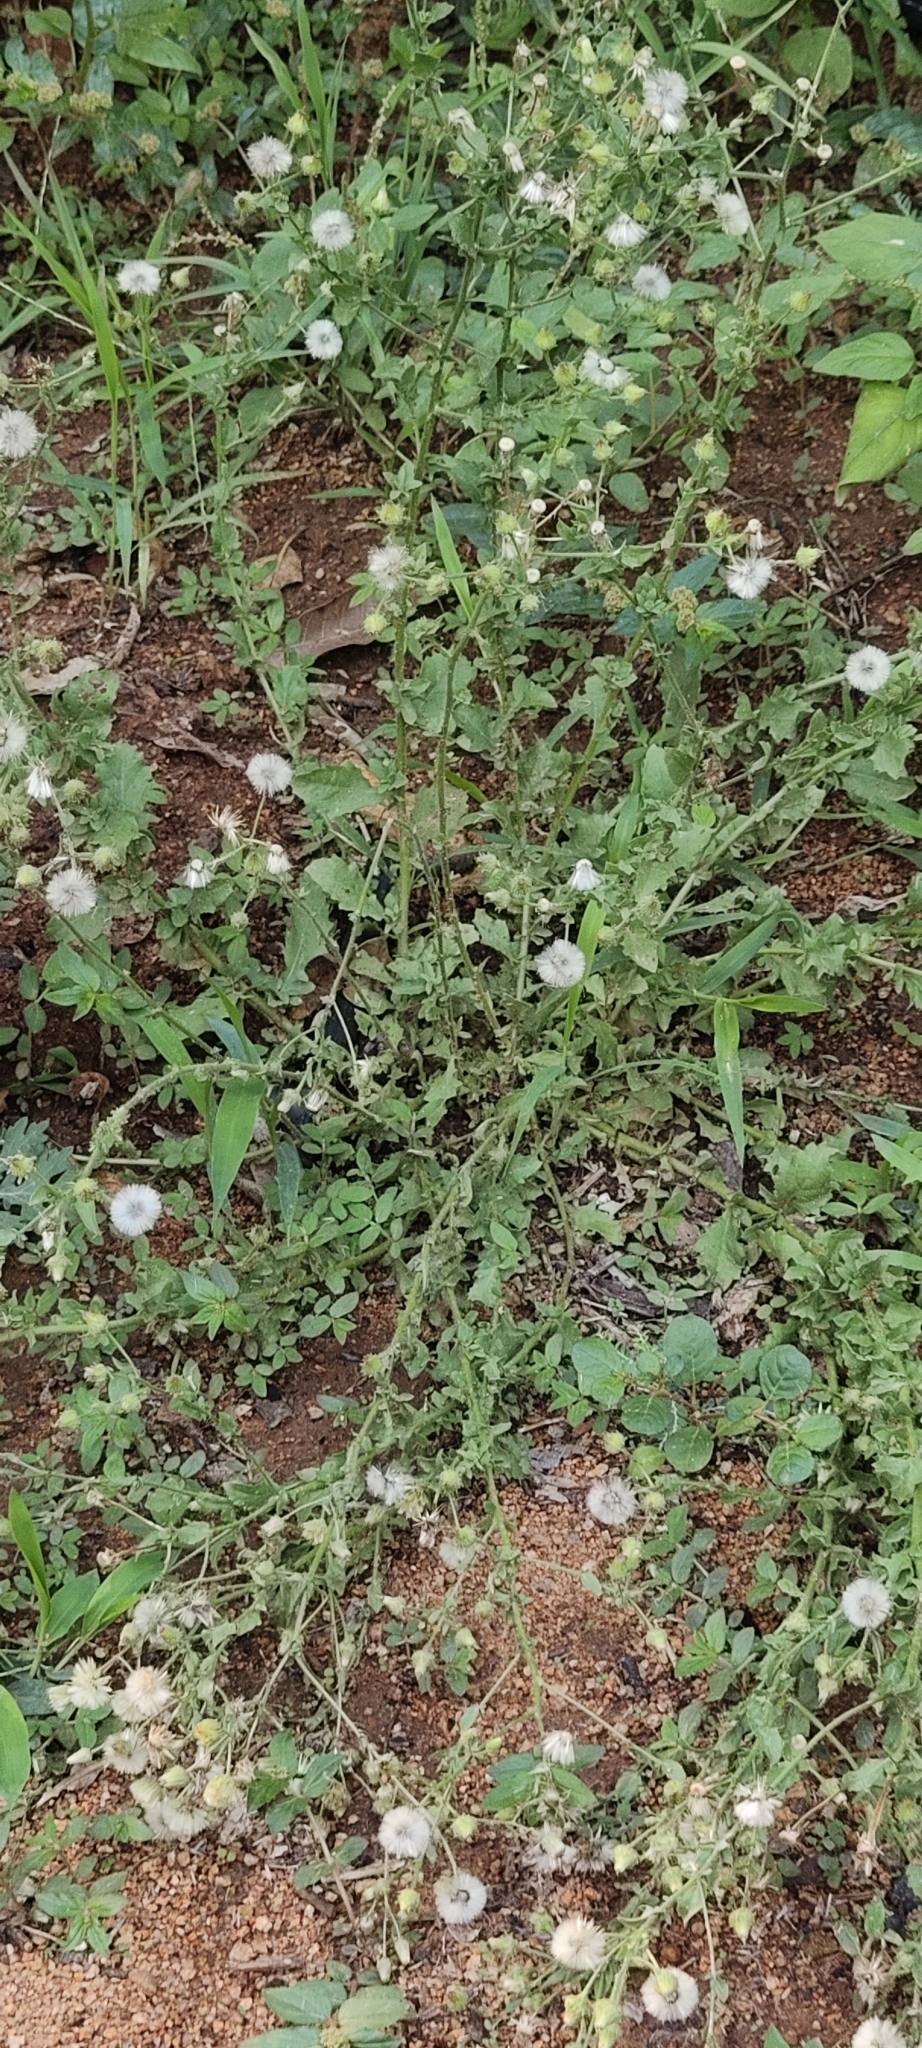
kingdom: Plantae
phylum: Tracheophyta
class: Magnoliopsida
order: Asterales
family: Asteraceae
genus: Parthenium
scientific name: Parthenium hysterophorus
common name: Santa maria feverfew
